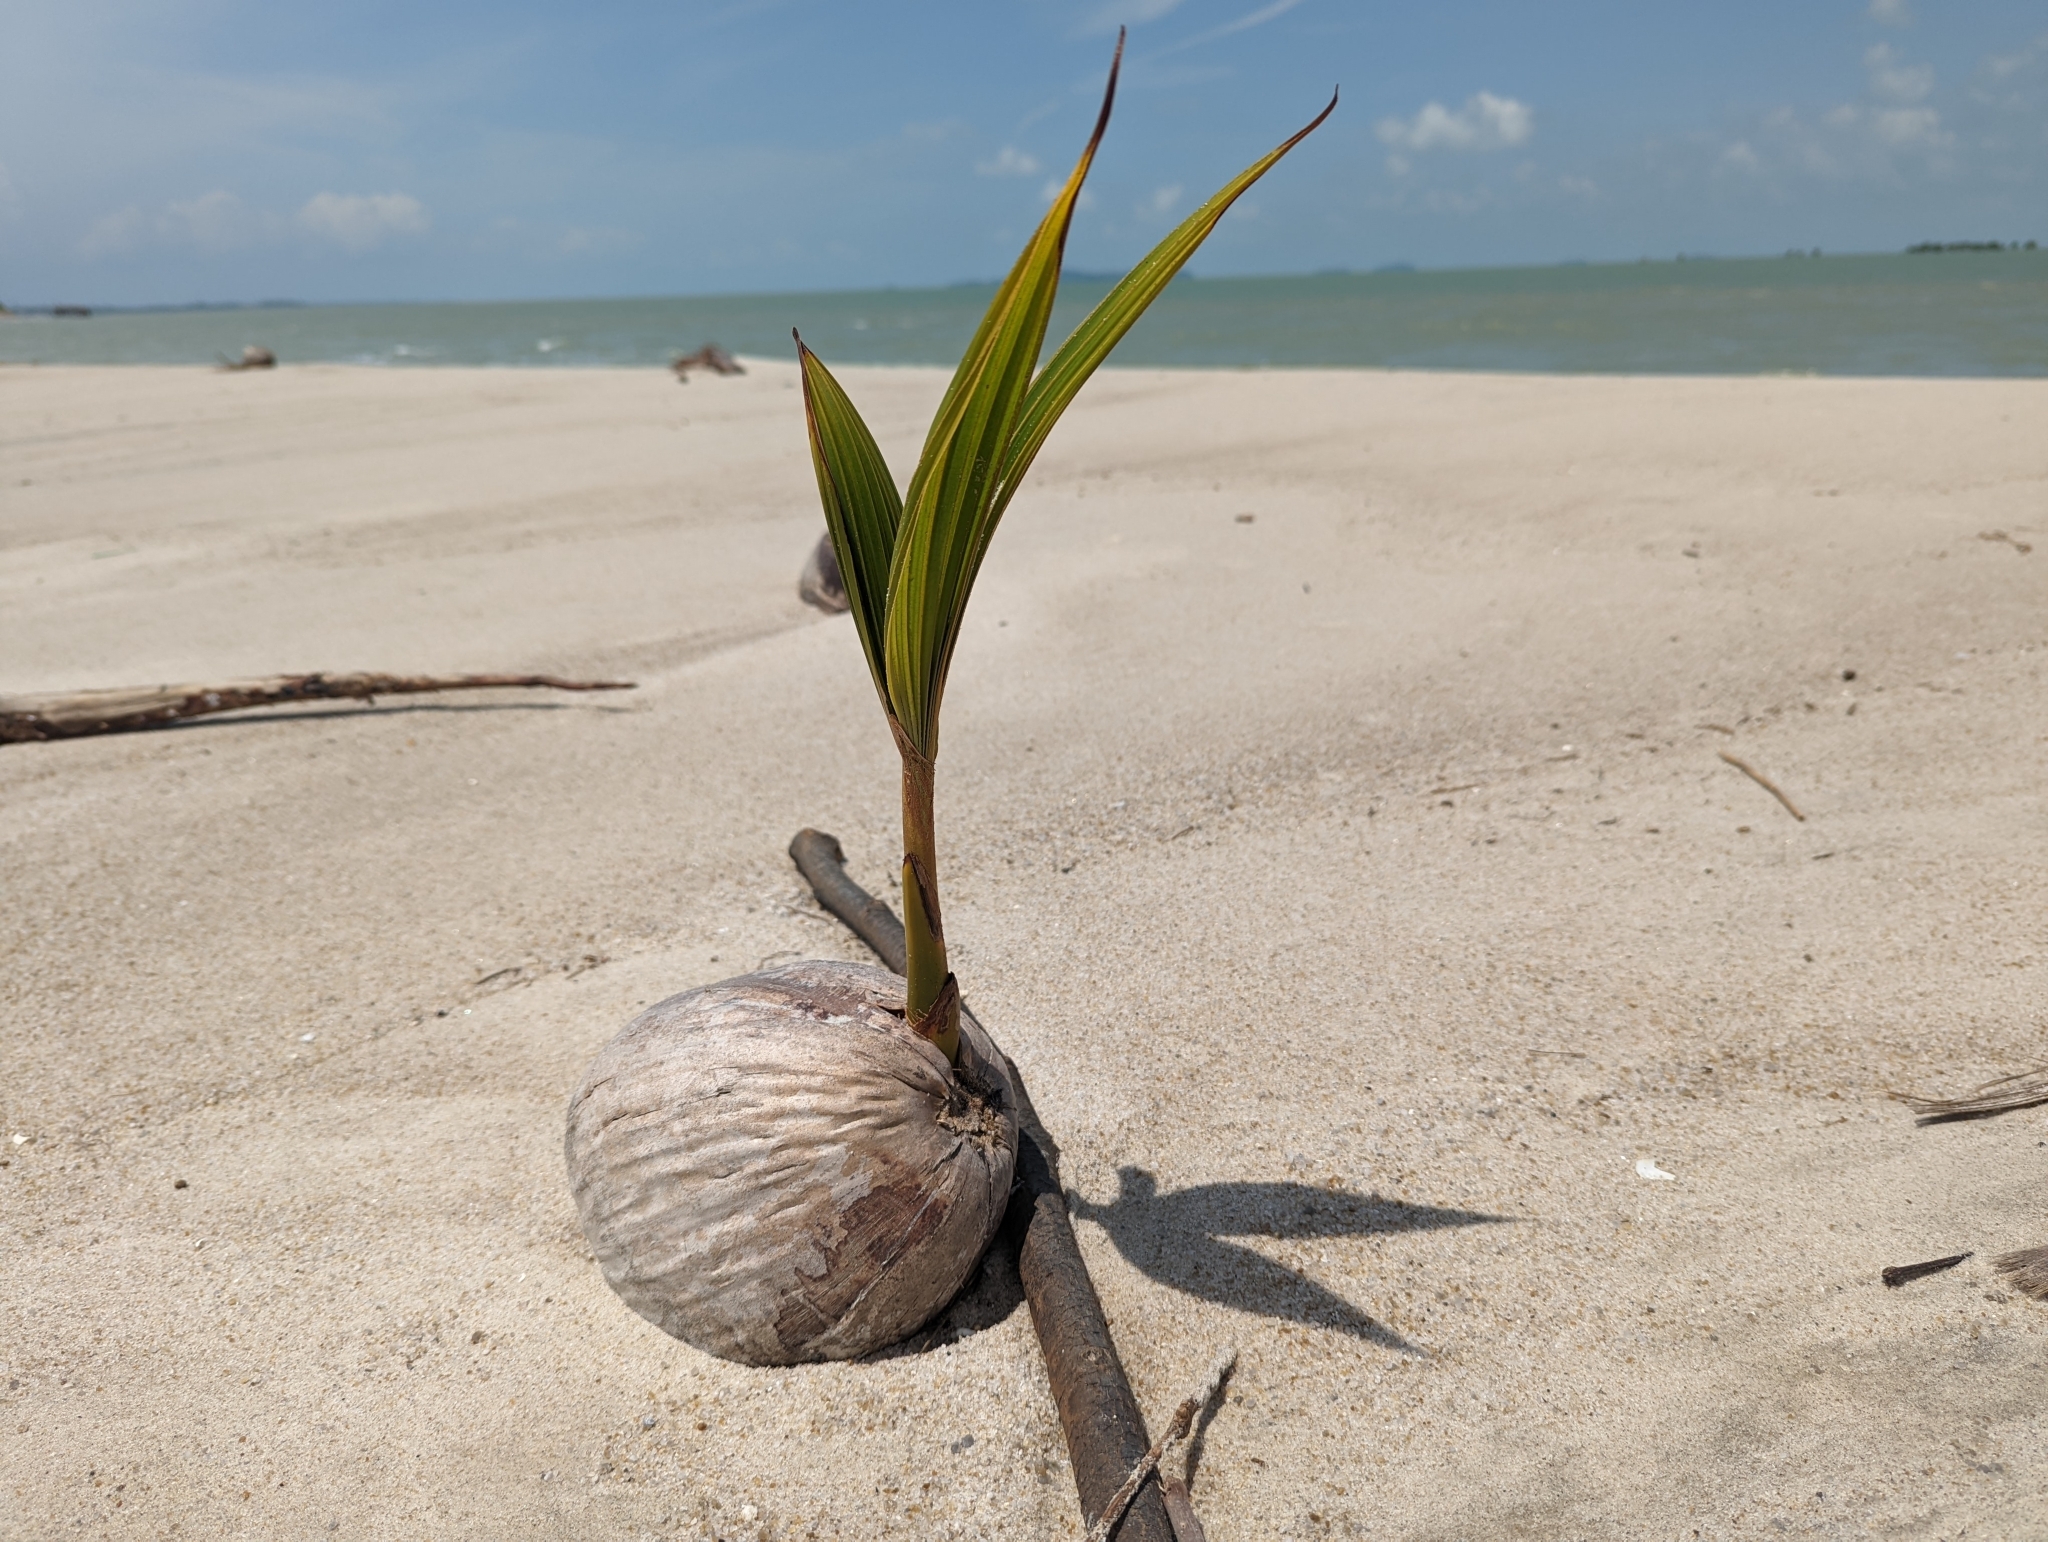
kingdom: Plantae
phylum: Tracheophyta
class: Liliopsida
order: Arecales
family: Arecaceae
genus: Cocos
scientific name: Cocos nucifera
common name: Coconut palm
